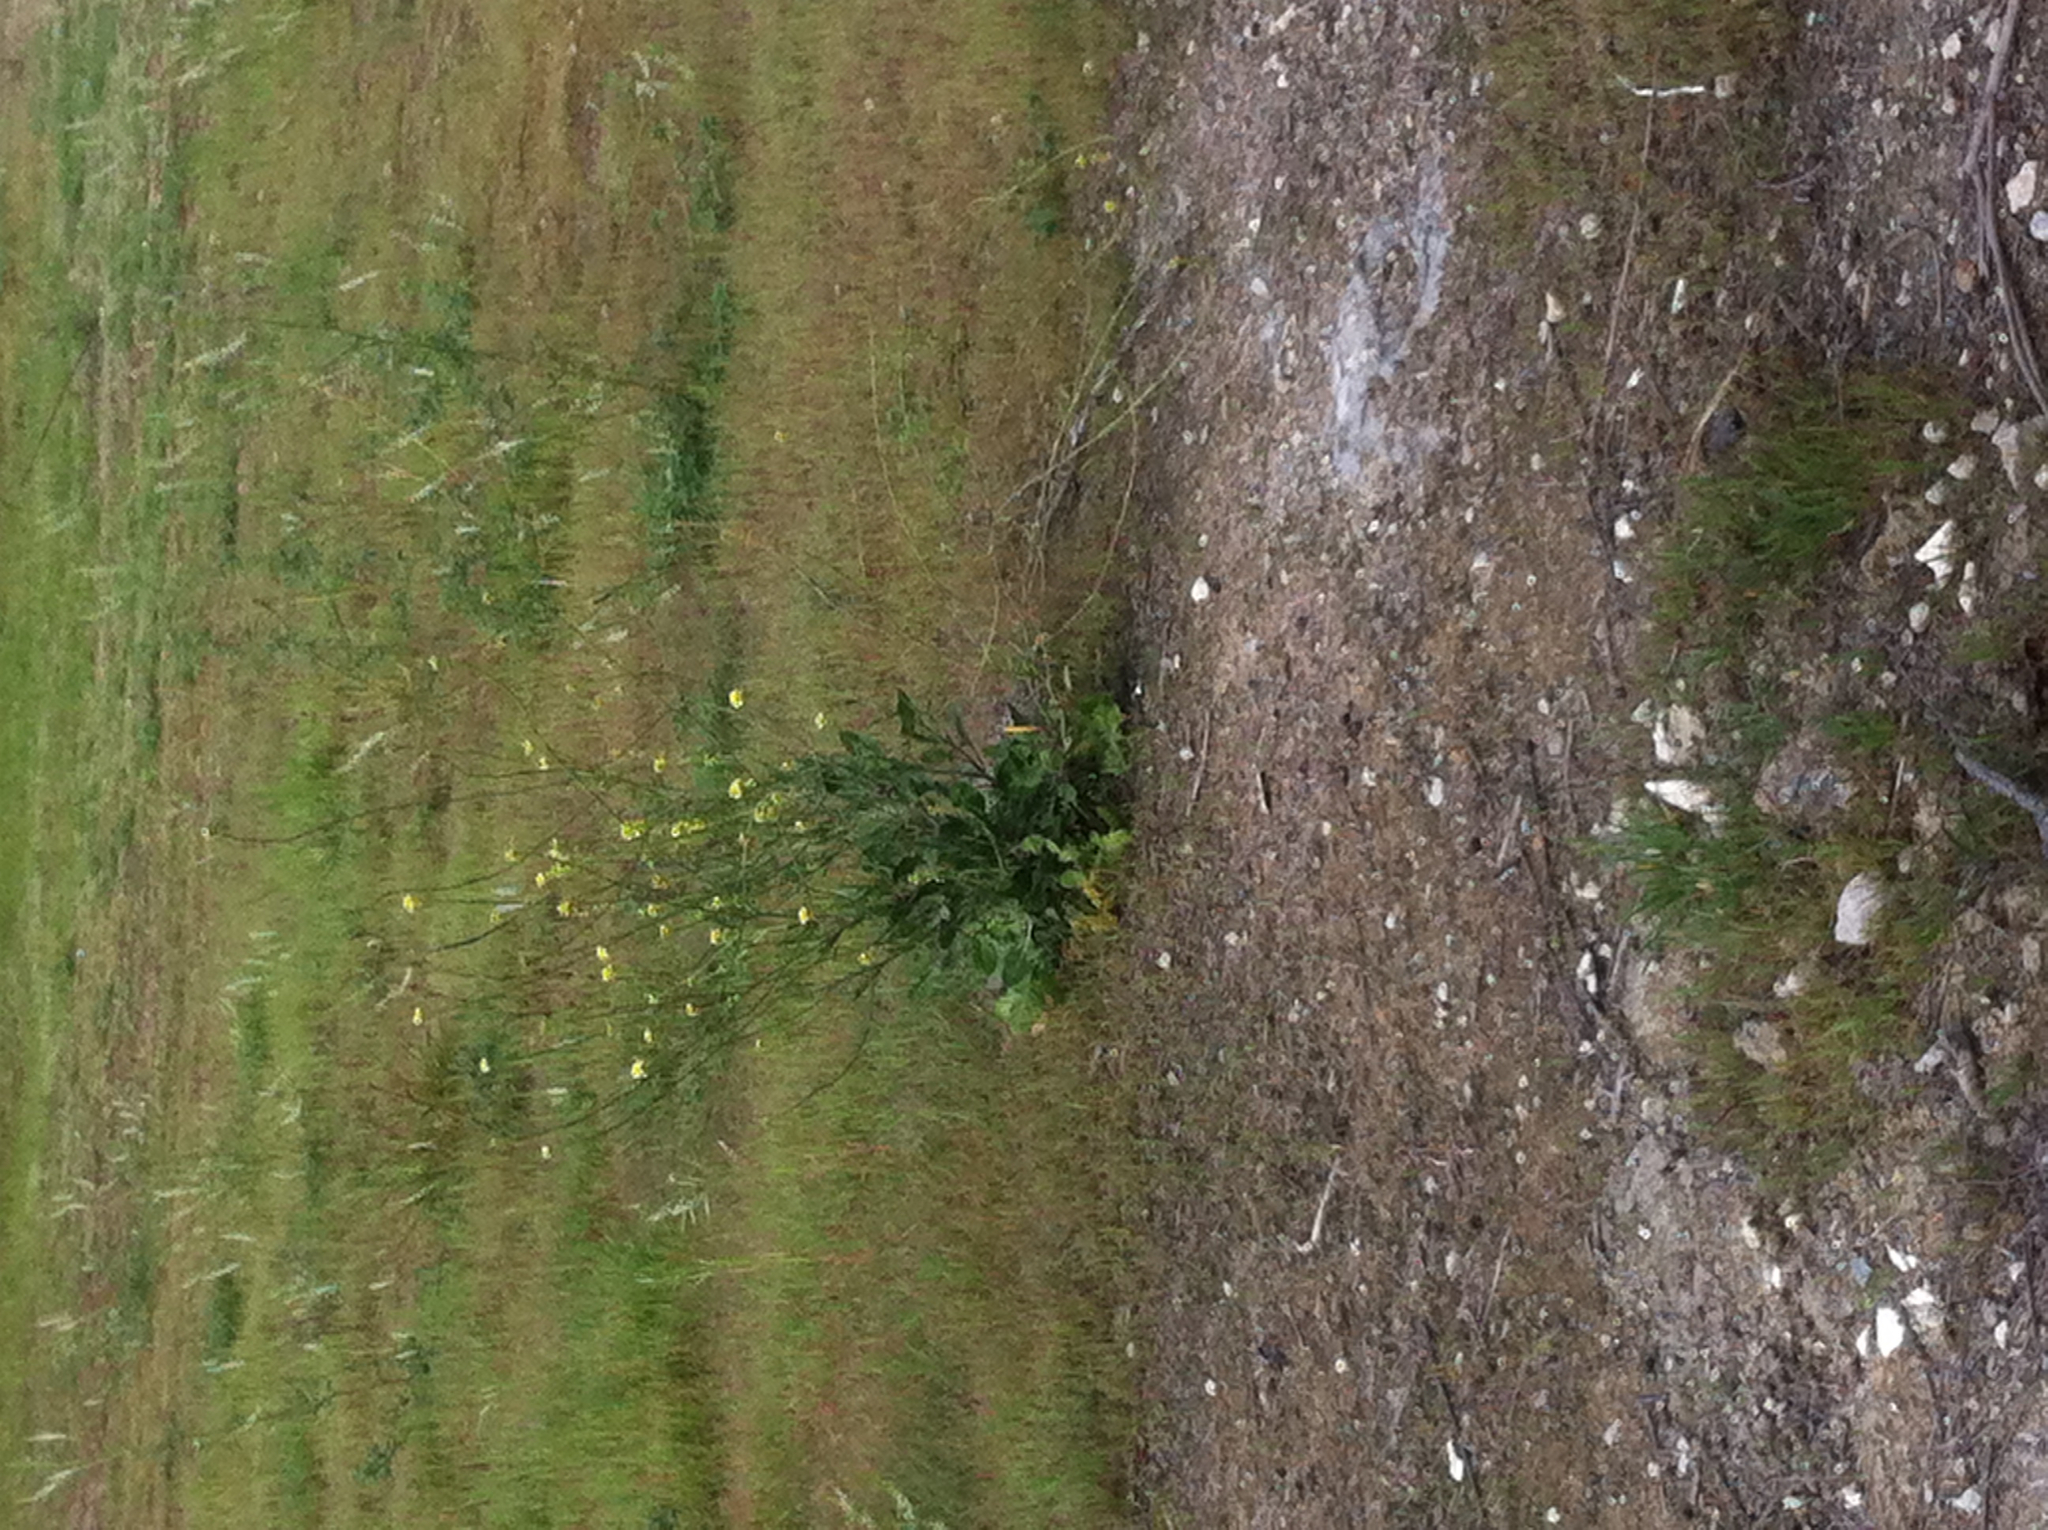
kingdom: Plantae
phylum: Tracheophyta
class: Magnoliopsida
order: Brassicales
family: Brassicaceae
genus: Hirschfeldia
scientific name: Hirschfeldia incana
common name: Hoary mustard
